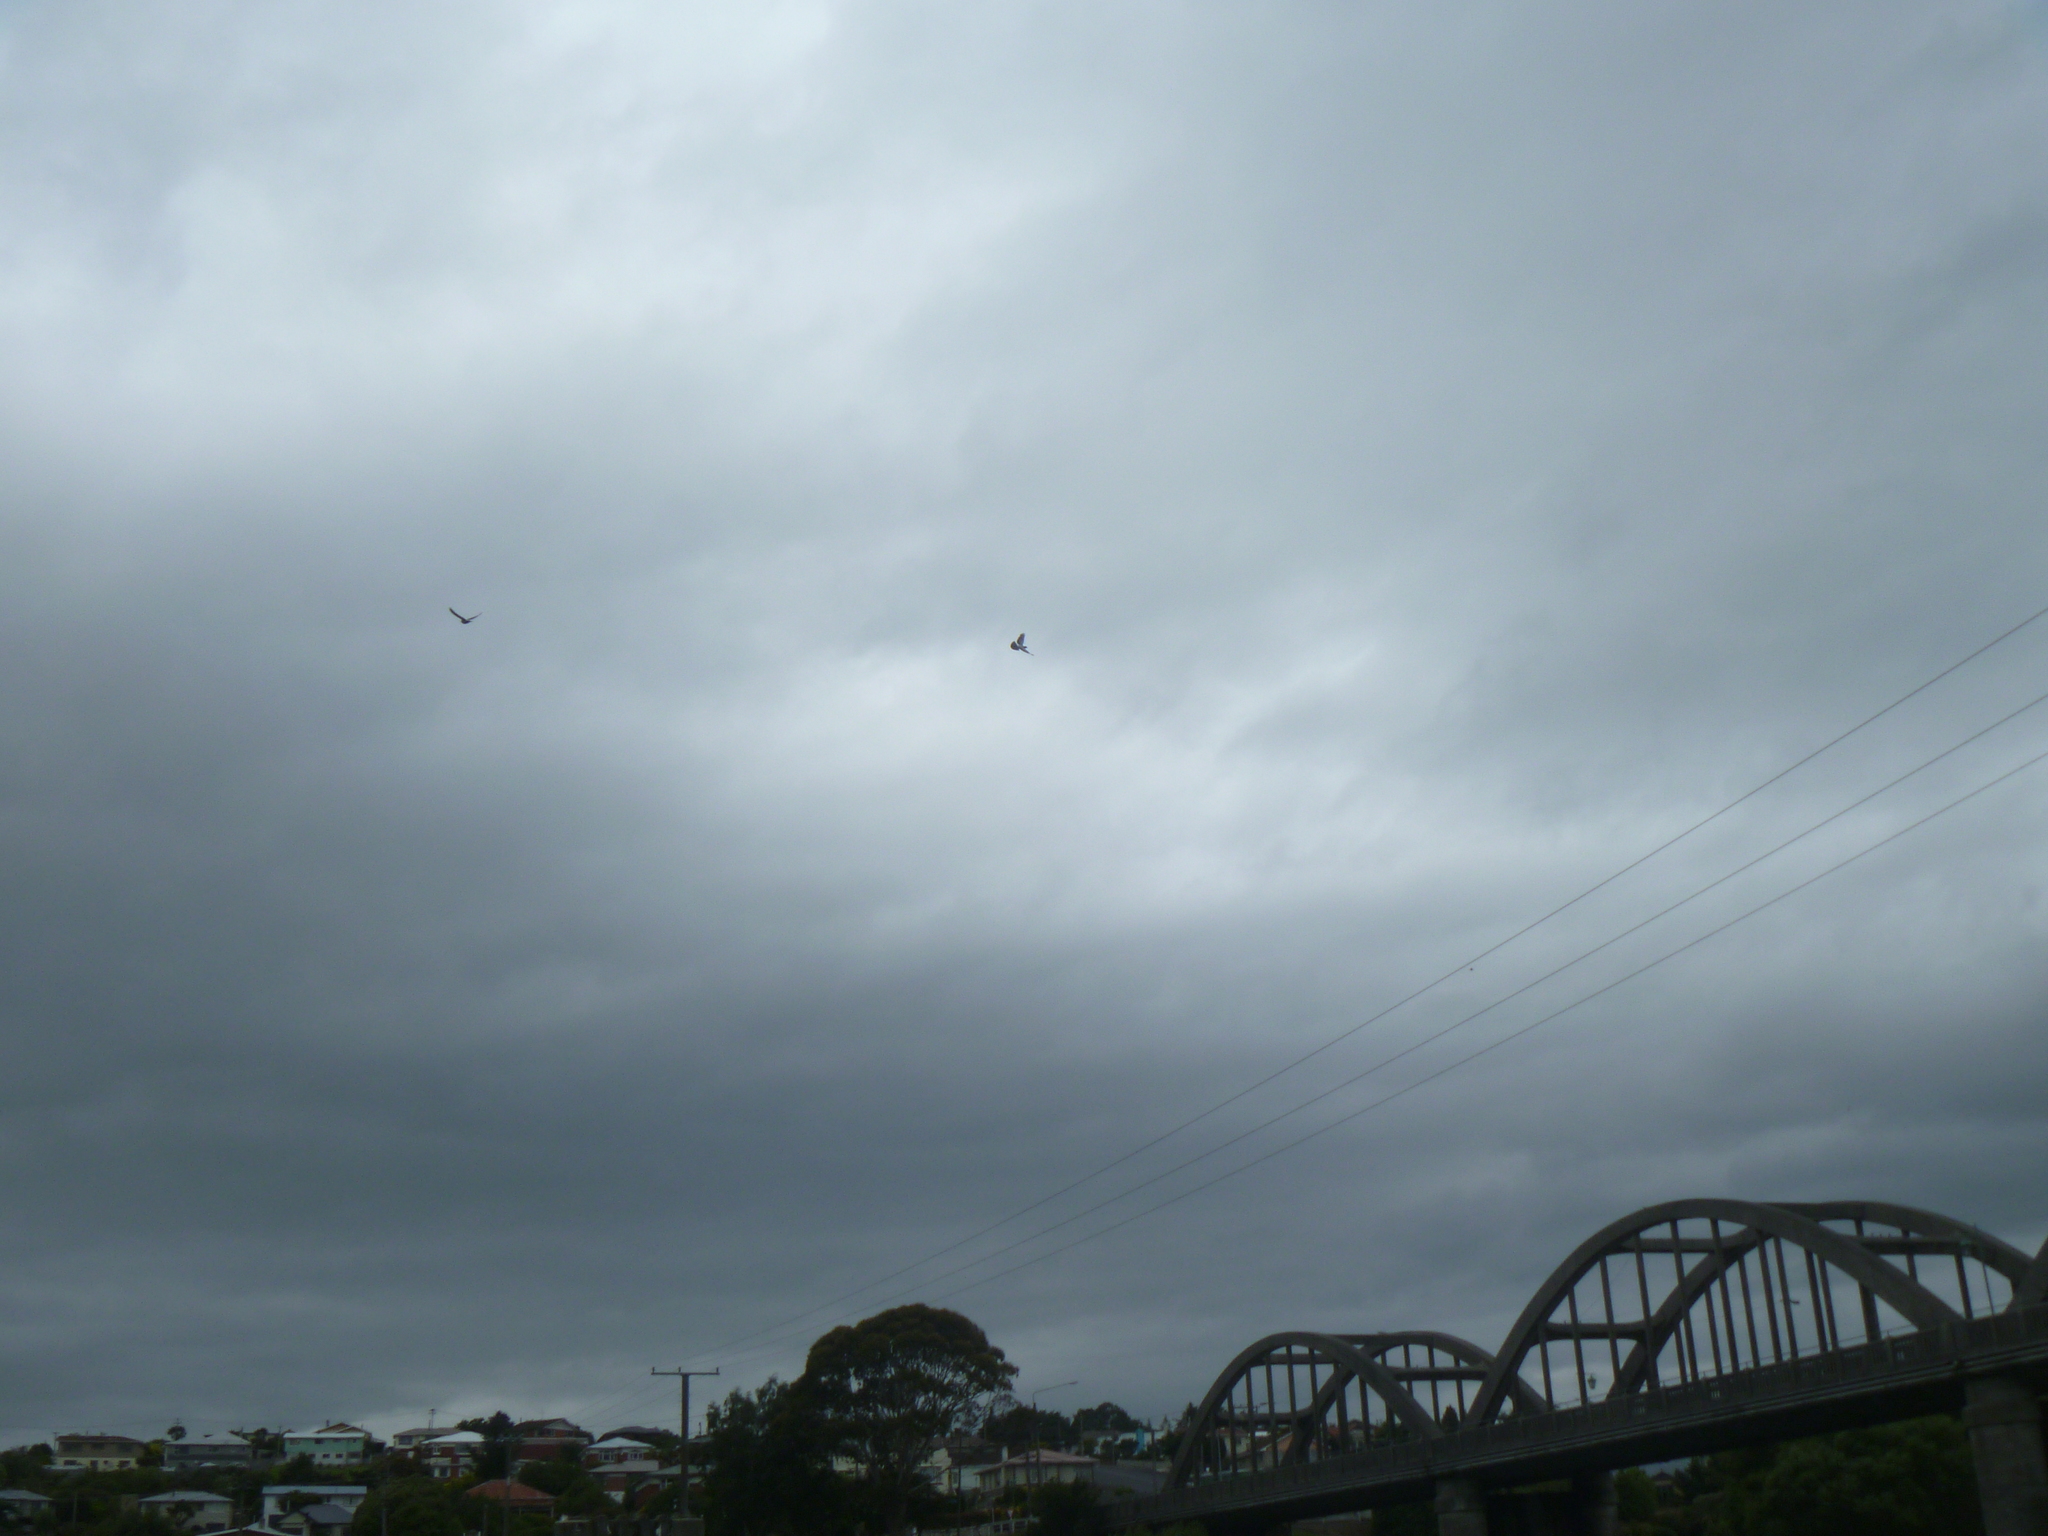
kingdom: Animalia
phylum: Chordata
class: Aves
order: Columbiformes
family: Columbidae
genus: Columba
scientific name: Columba livia
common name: Rock pigeon
